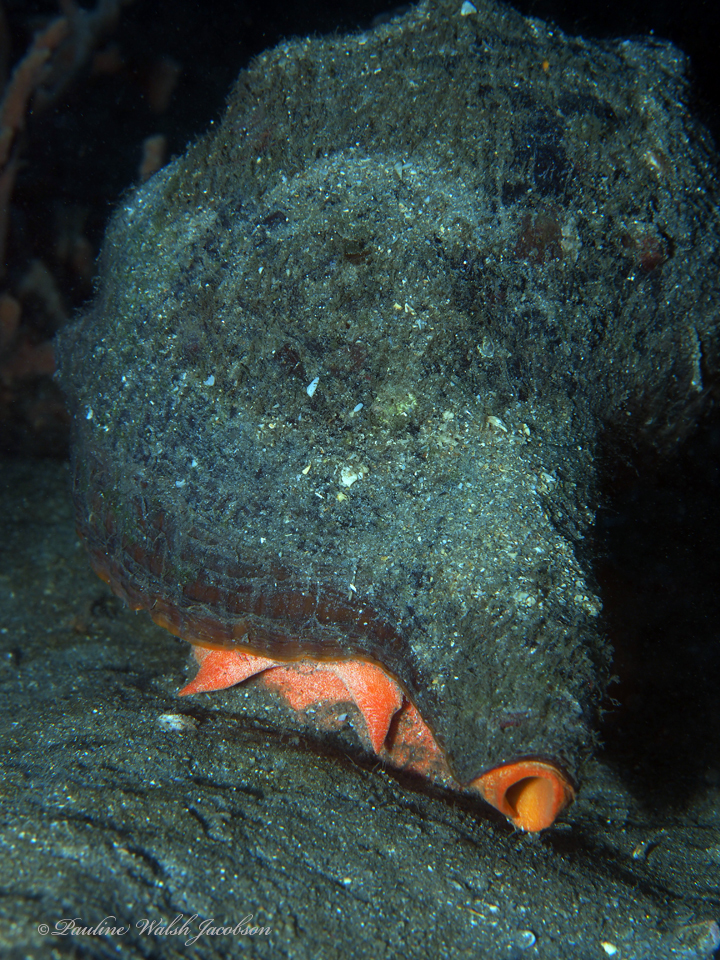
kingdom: Animalia
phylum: Mollusca
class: Gastropoda
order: Neogastropoda
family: Fasciolariidae
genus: Triplofusus
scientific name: Triplofusus giganteus
